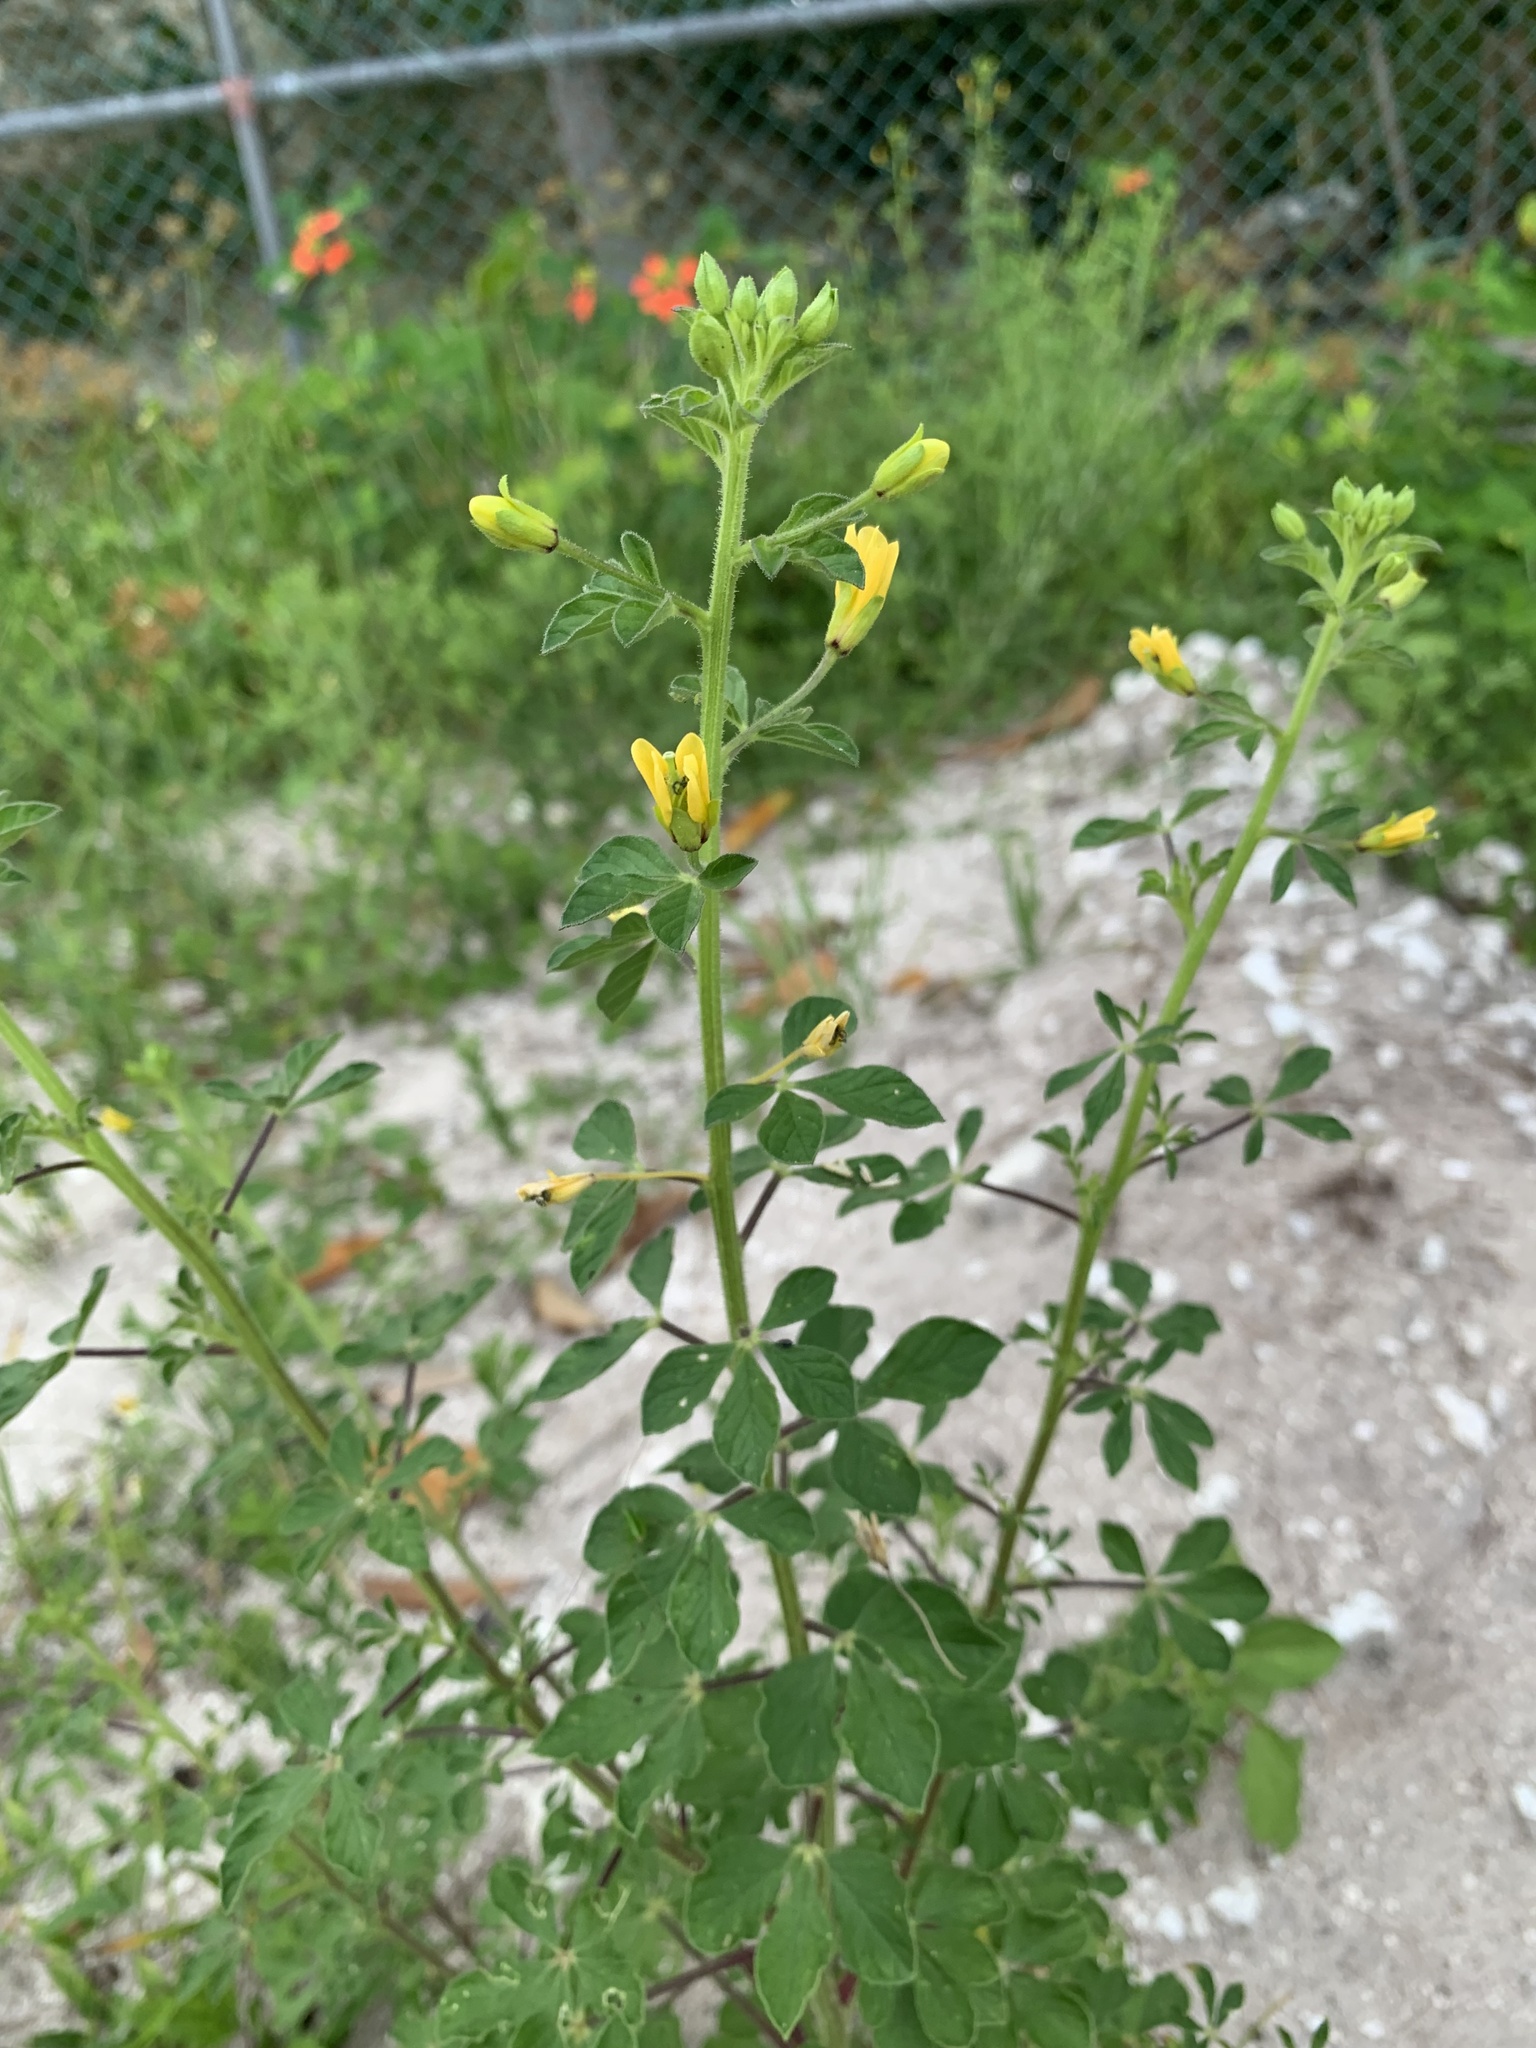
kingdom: Plantae
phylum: Tracheophyta
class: Magnoliopsida
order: Brassicales
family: Cleomaceae
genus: Arivela
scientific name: Arivela viscosa
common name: Asian spiderflower
